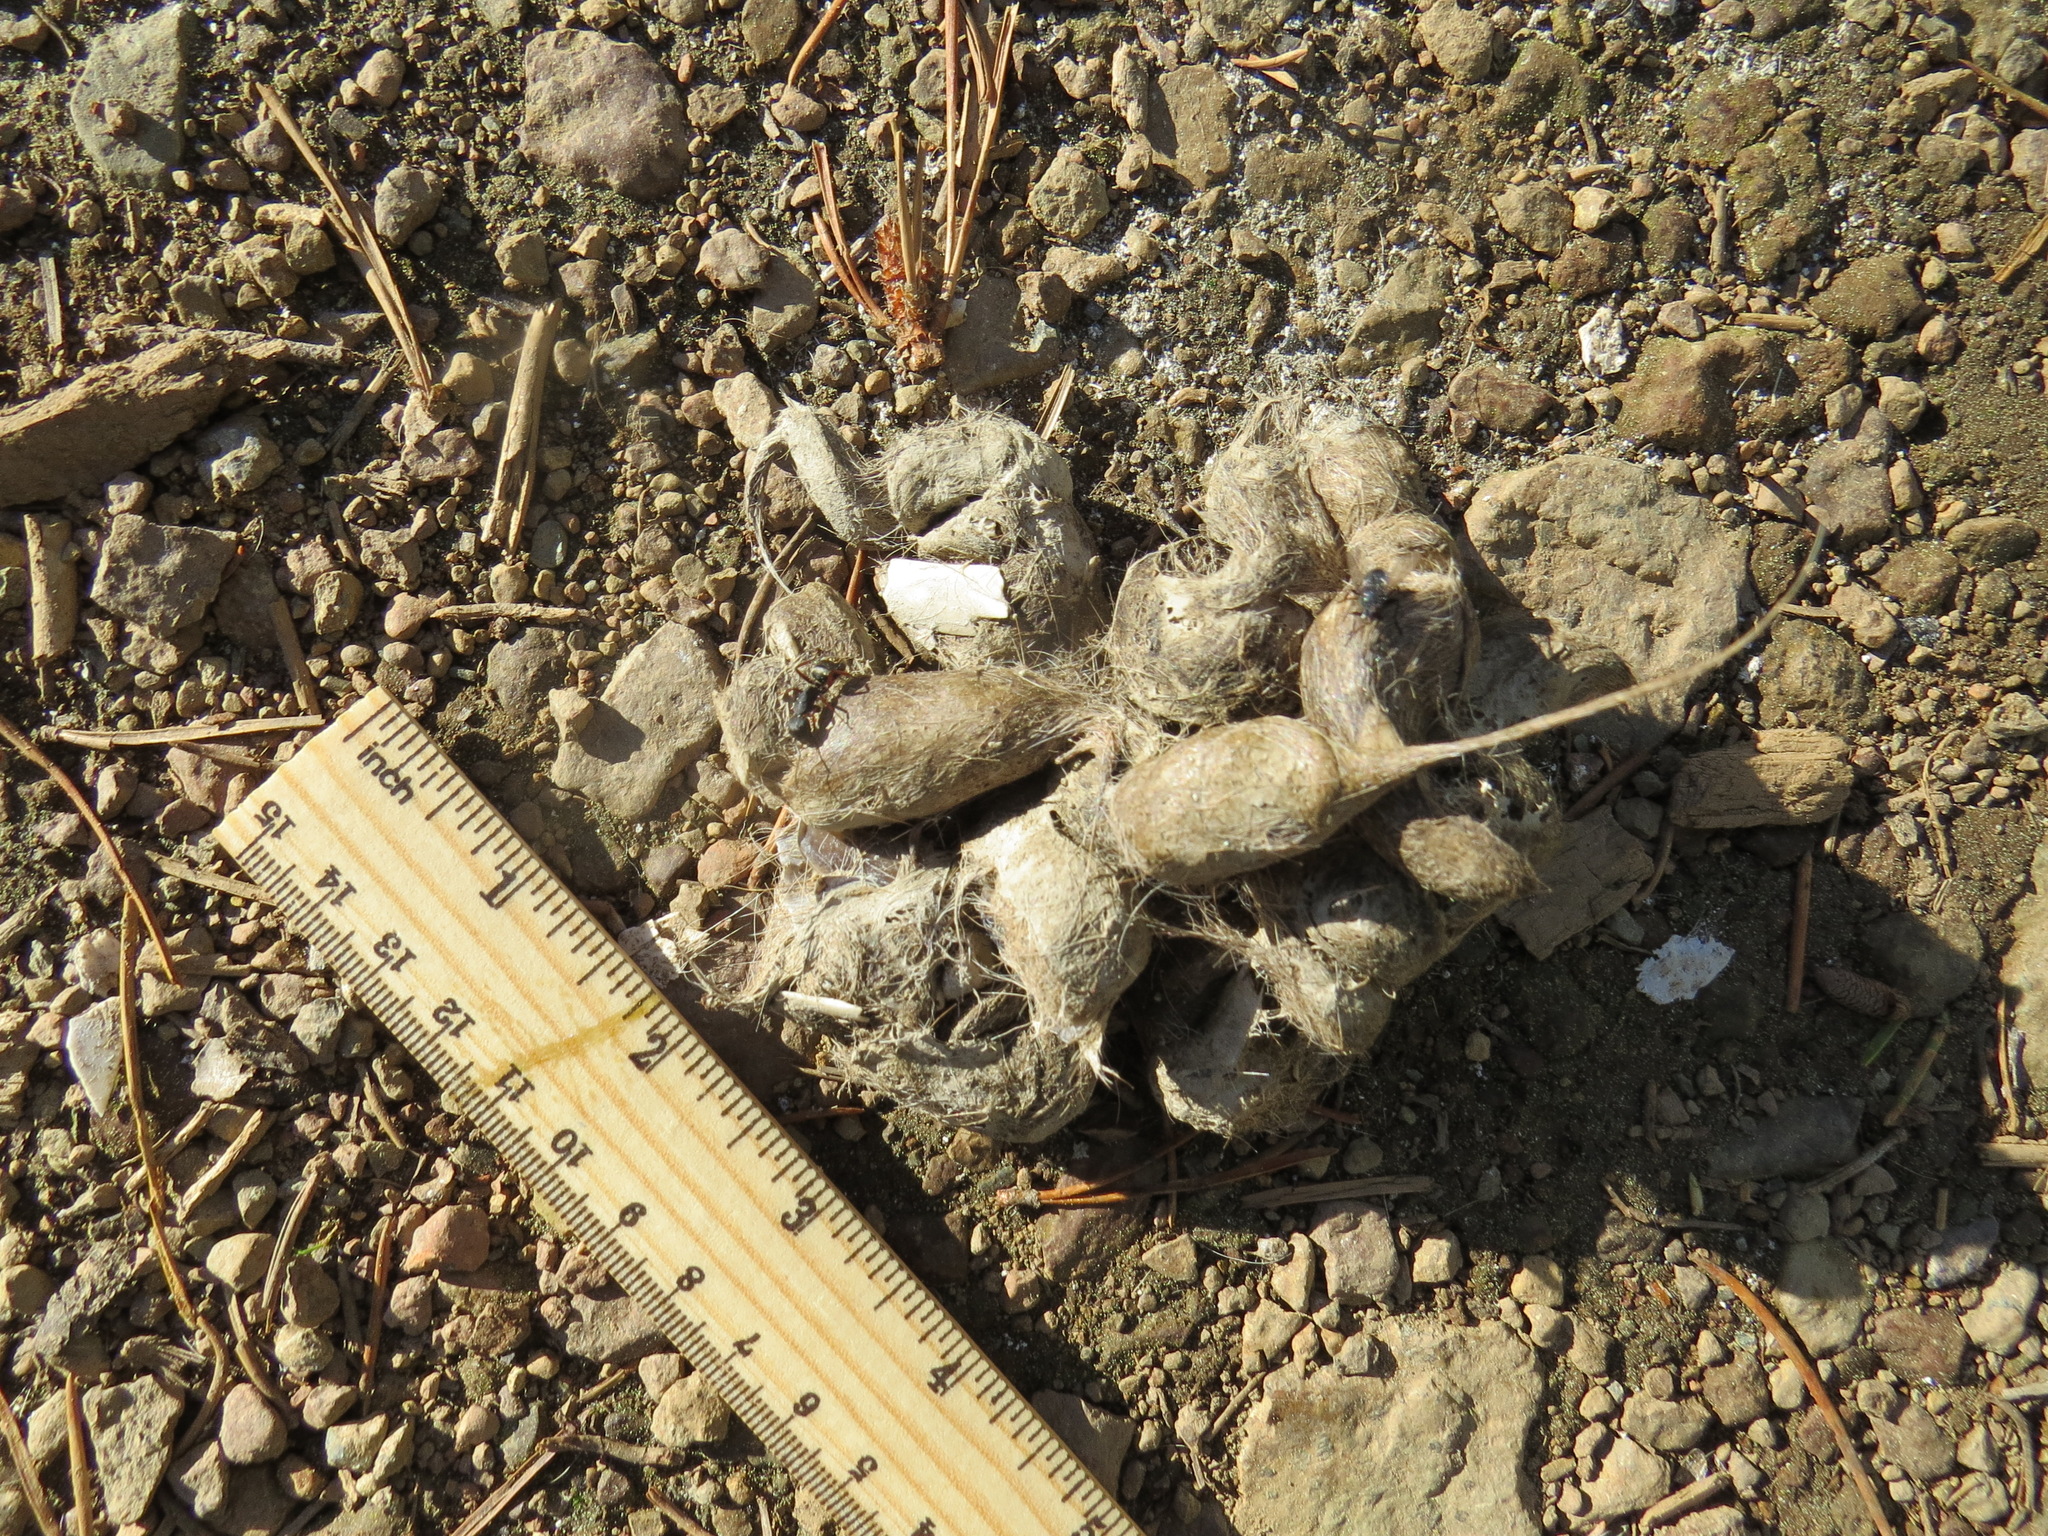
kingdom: Animalia
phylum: Chordata
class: Mammalia
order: Carnivora
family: Canidae
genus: Canis
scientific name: Canis latrans
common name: Coyote
